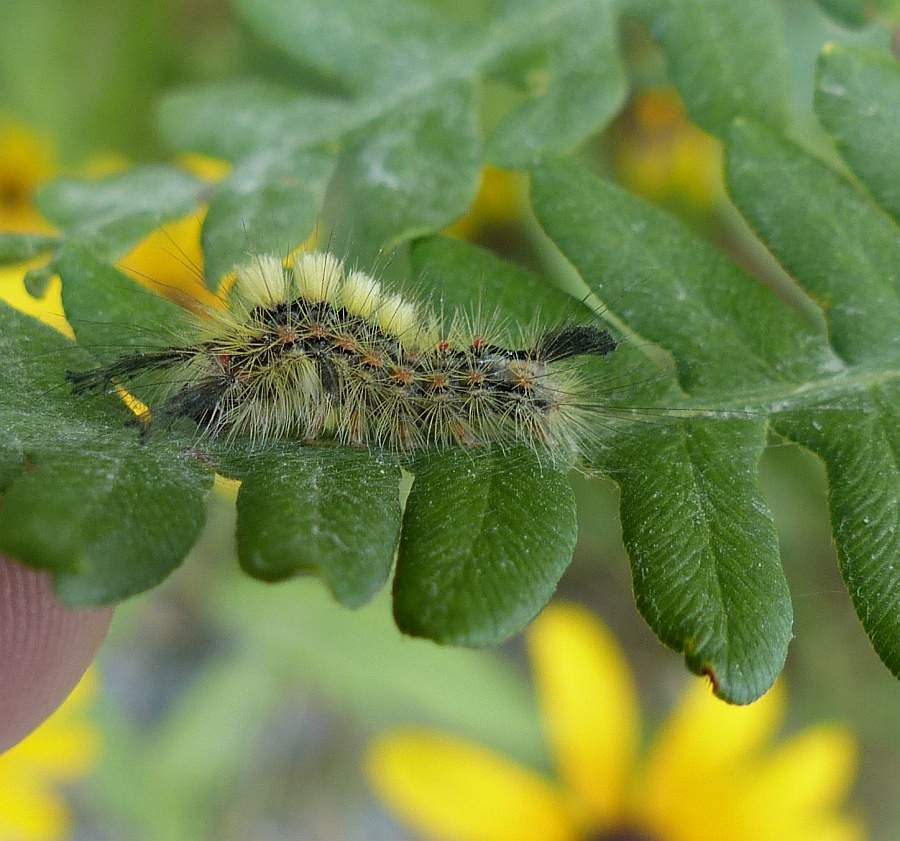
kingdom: Animalia
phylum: Arthropoda
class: Insecta
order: Lepidoptera
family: Erebidae
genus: Orgyia
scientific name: Orgyia antiqua
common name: Vapourer
